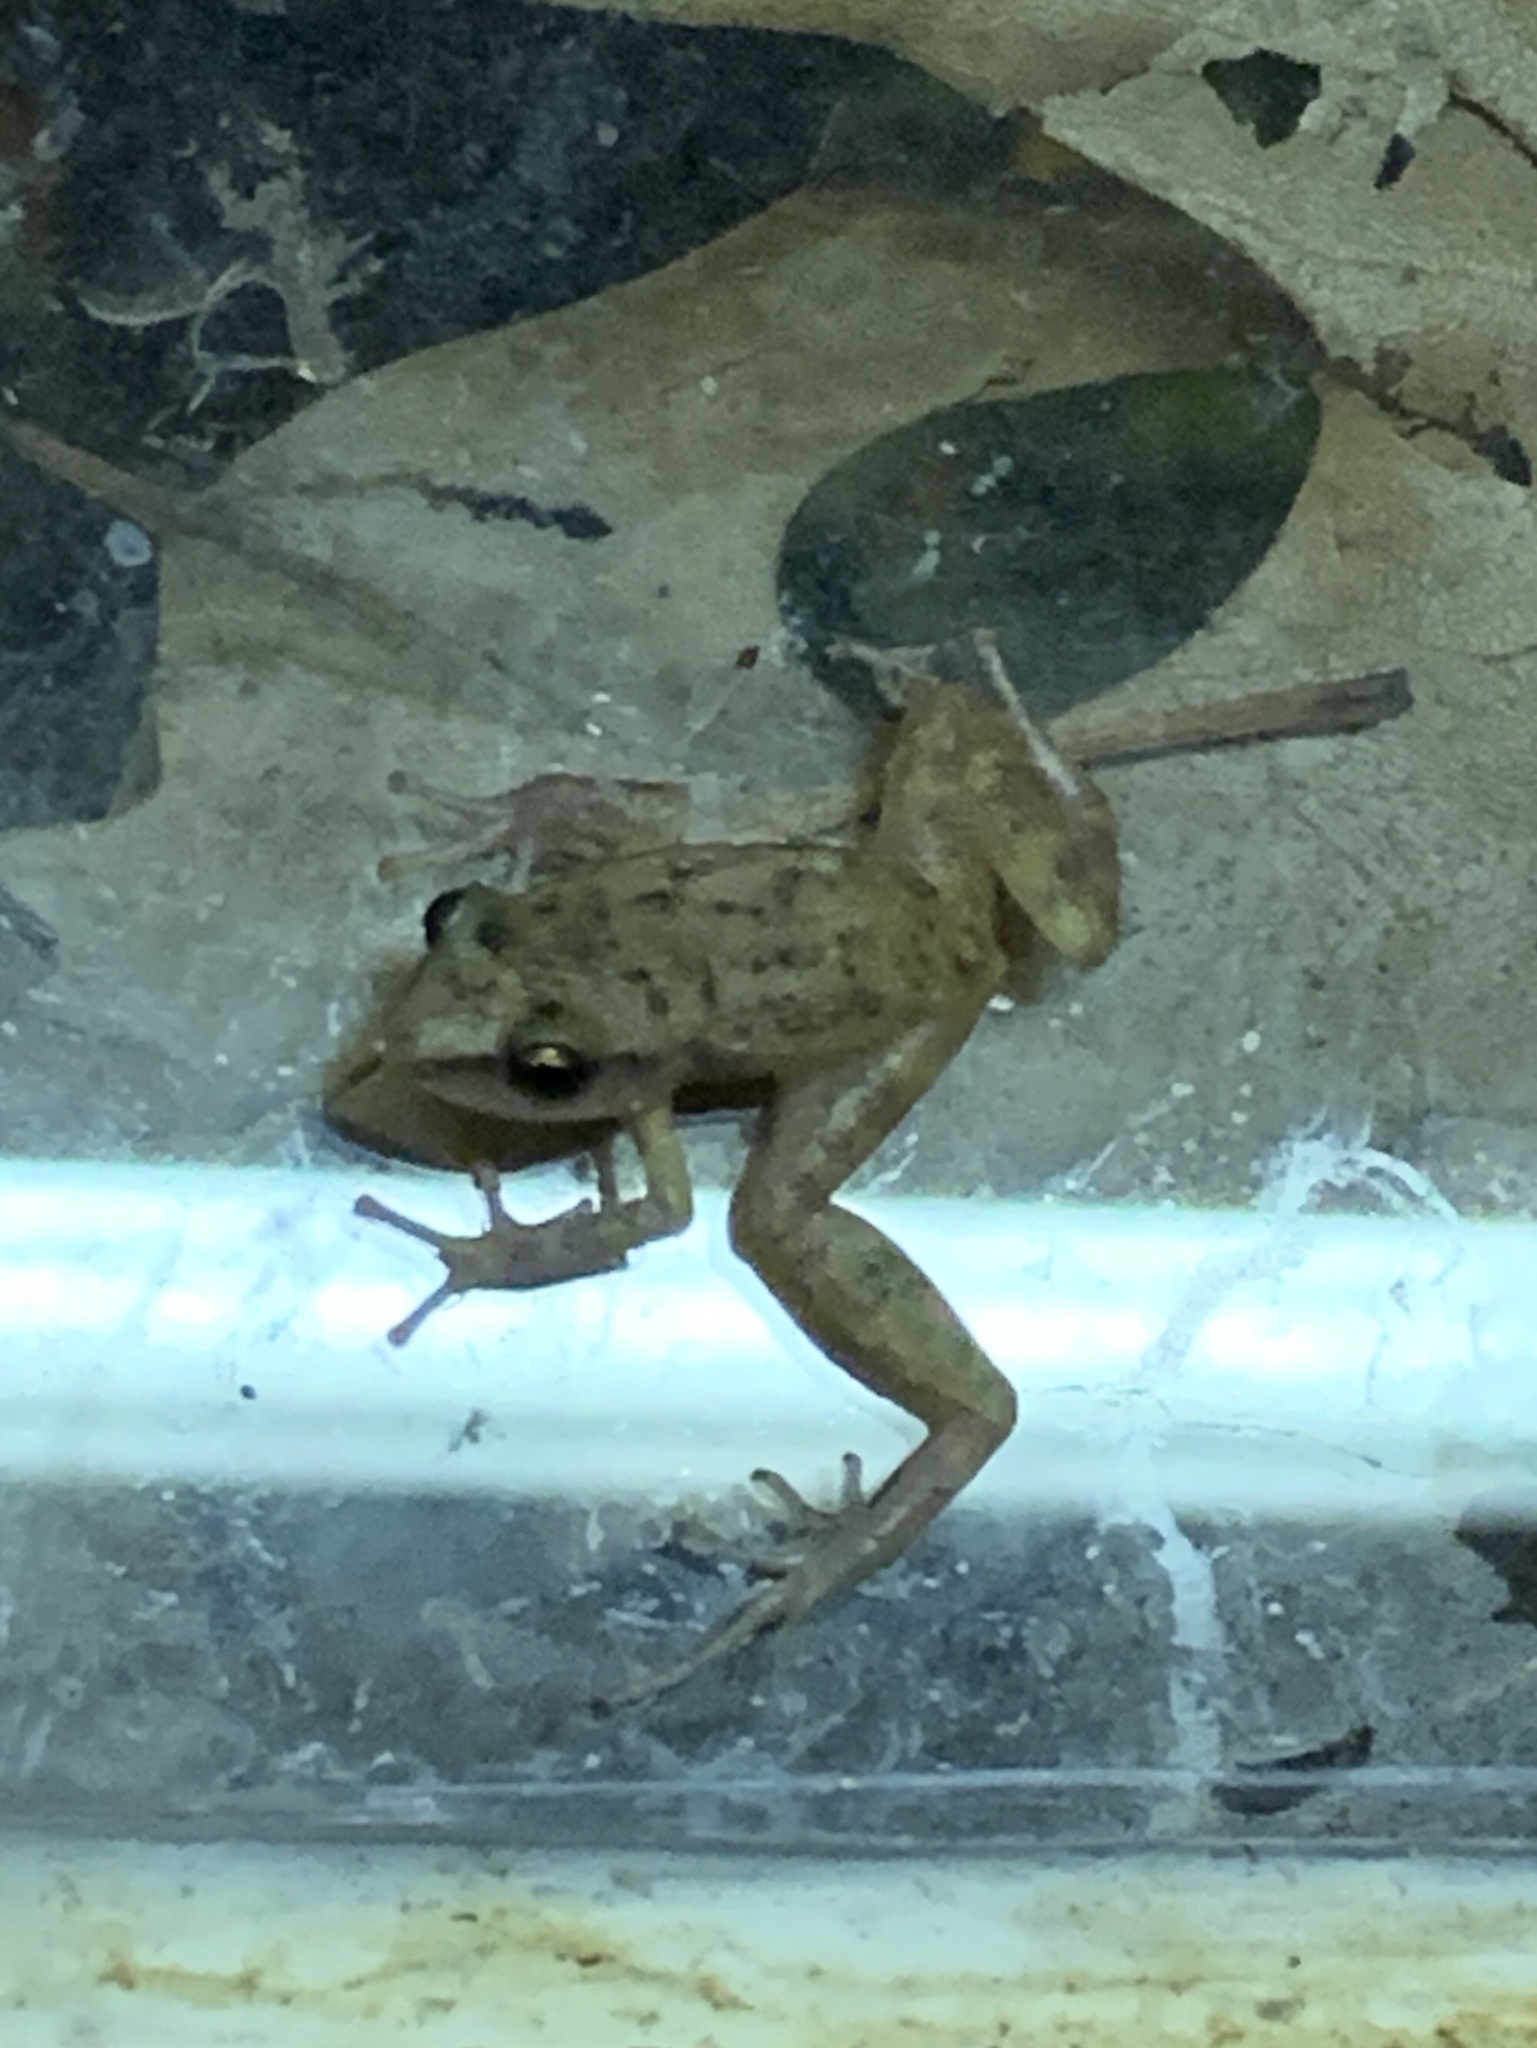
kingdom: Animalia
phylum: Chordata
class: Amphibia
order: Anura
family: Eleutherodactylidae
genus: Eleutherodactylus
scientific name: Eleutherodactylus campi
